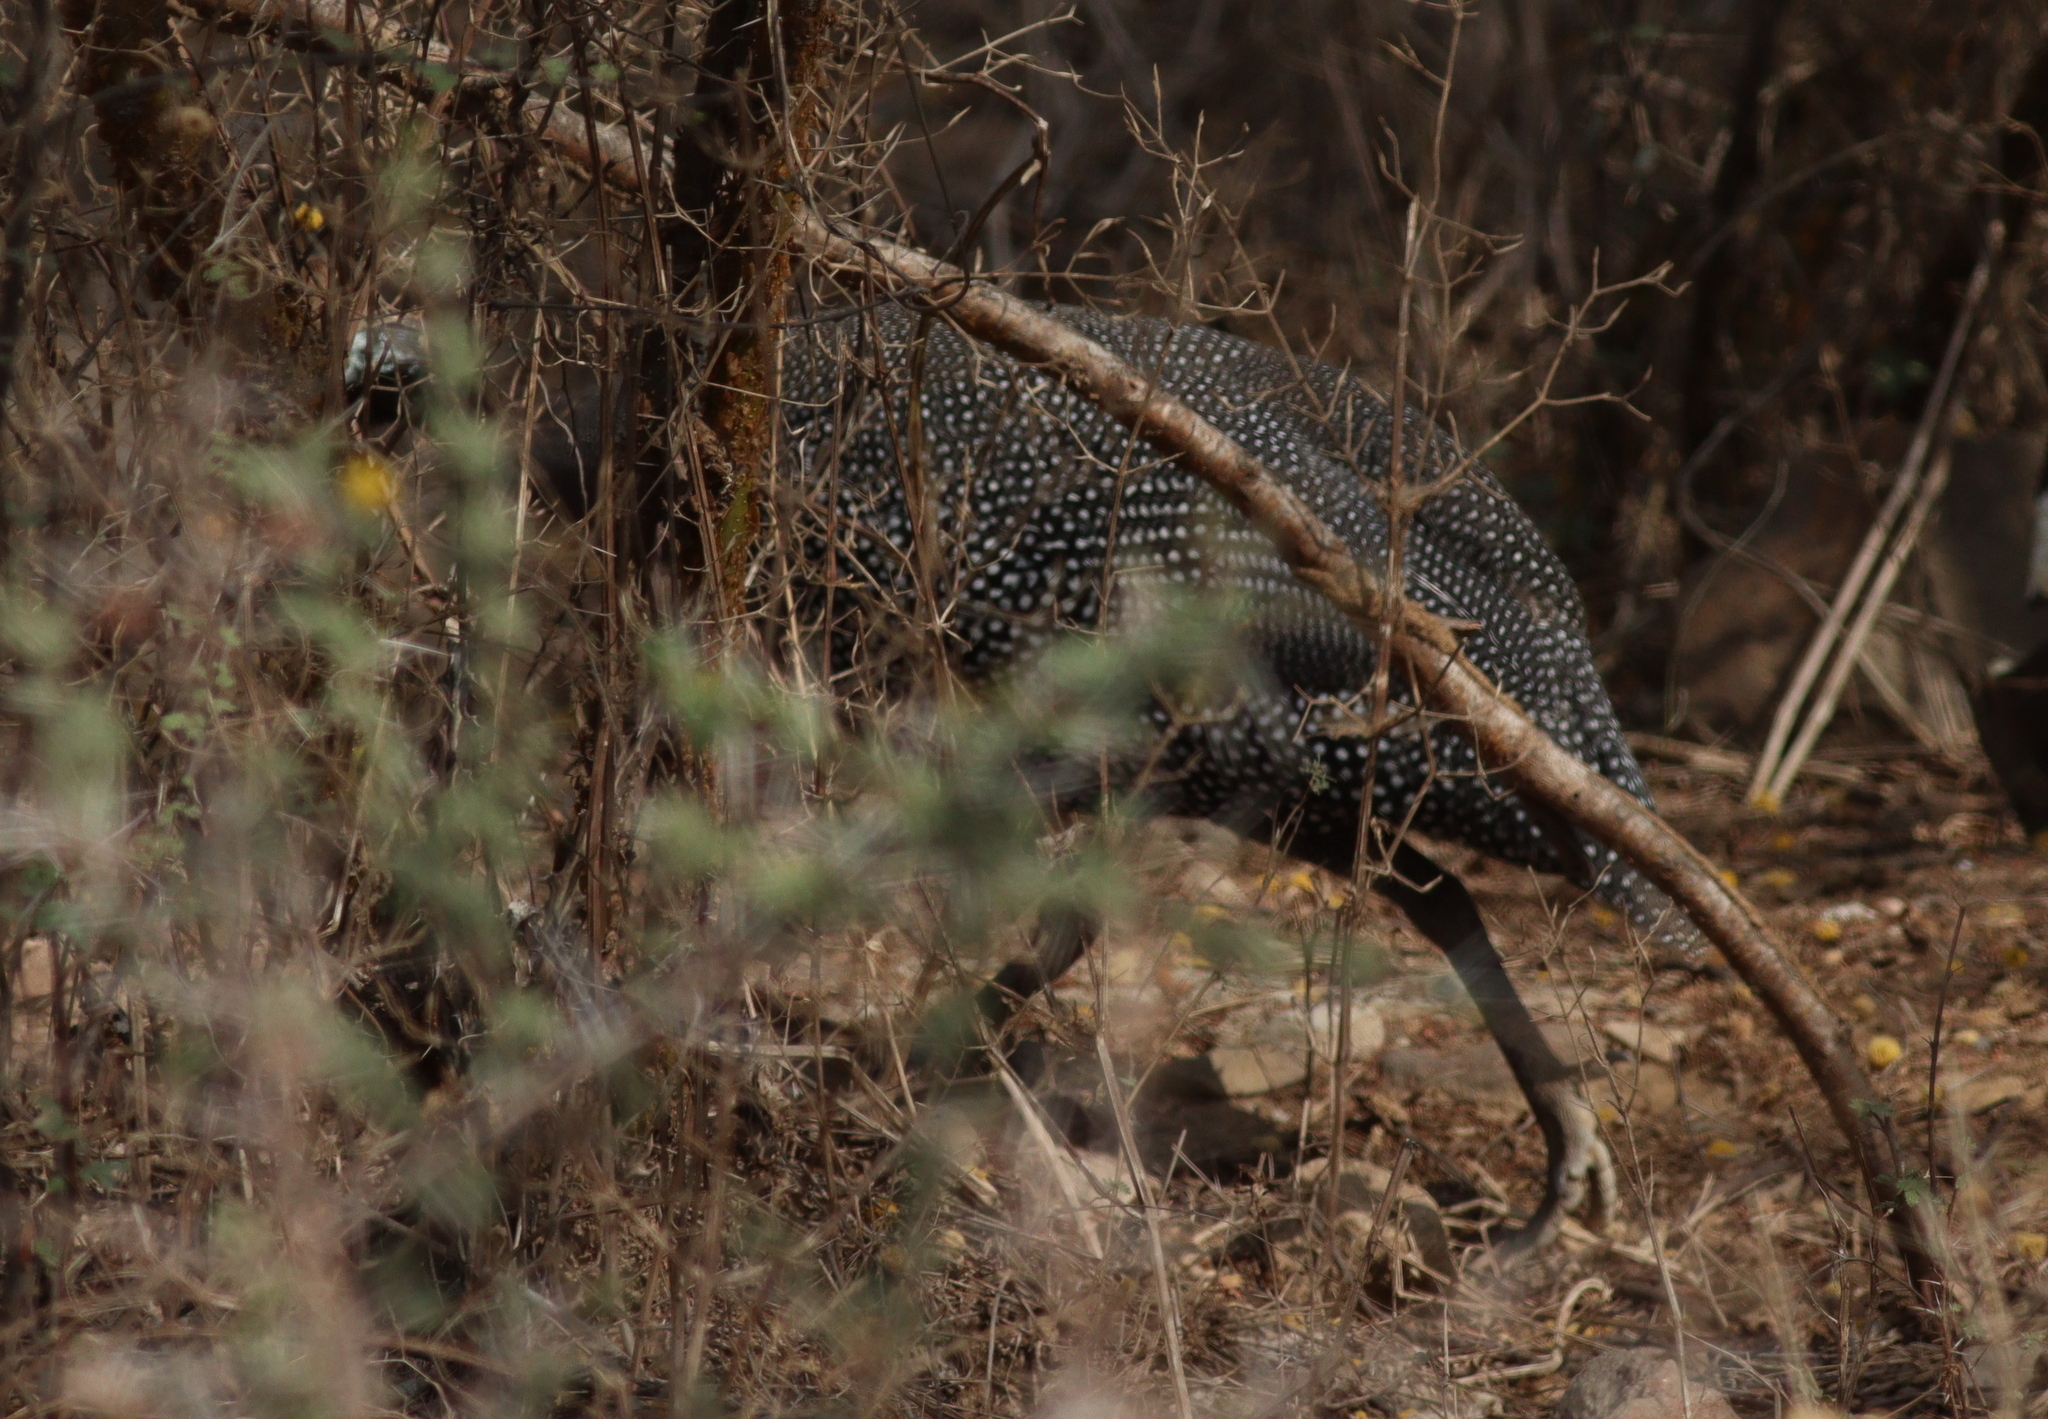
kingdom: Animalia
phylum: Chordata
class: Aves
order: Galliformes
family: Numididae
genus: Numida
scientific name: Numida meleagris
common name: Helmeted guineafowl
